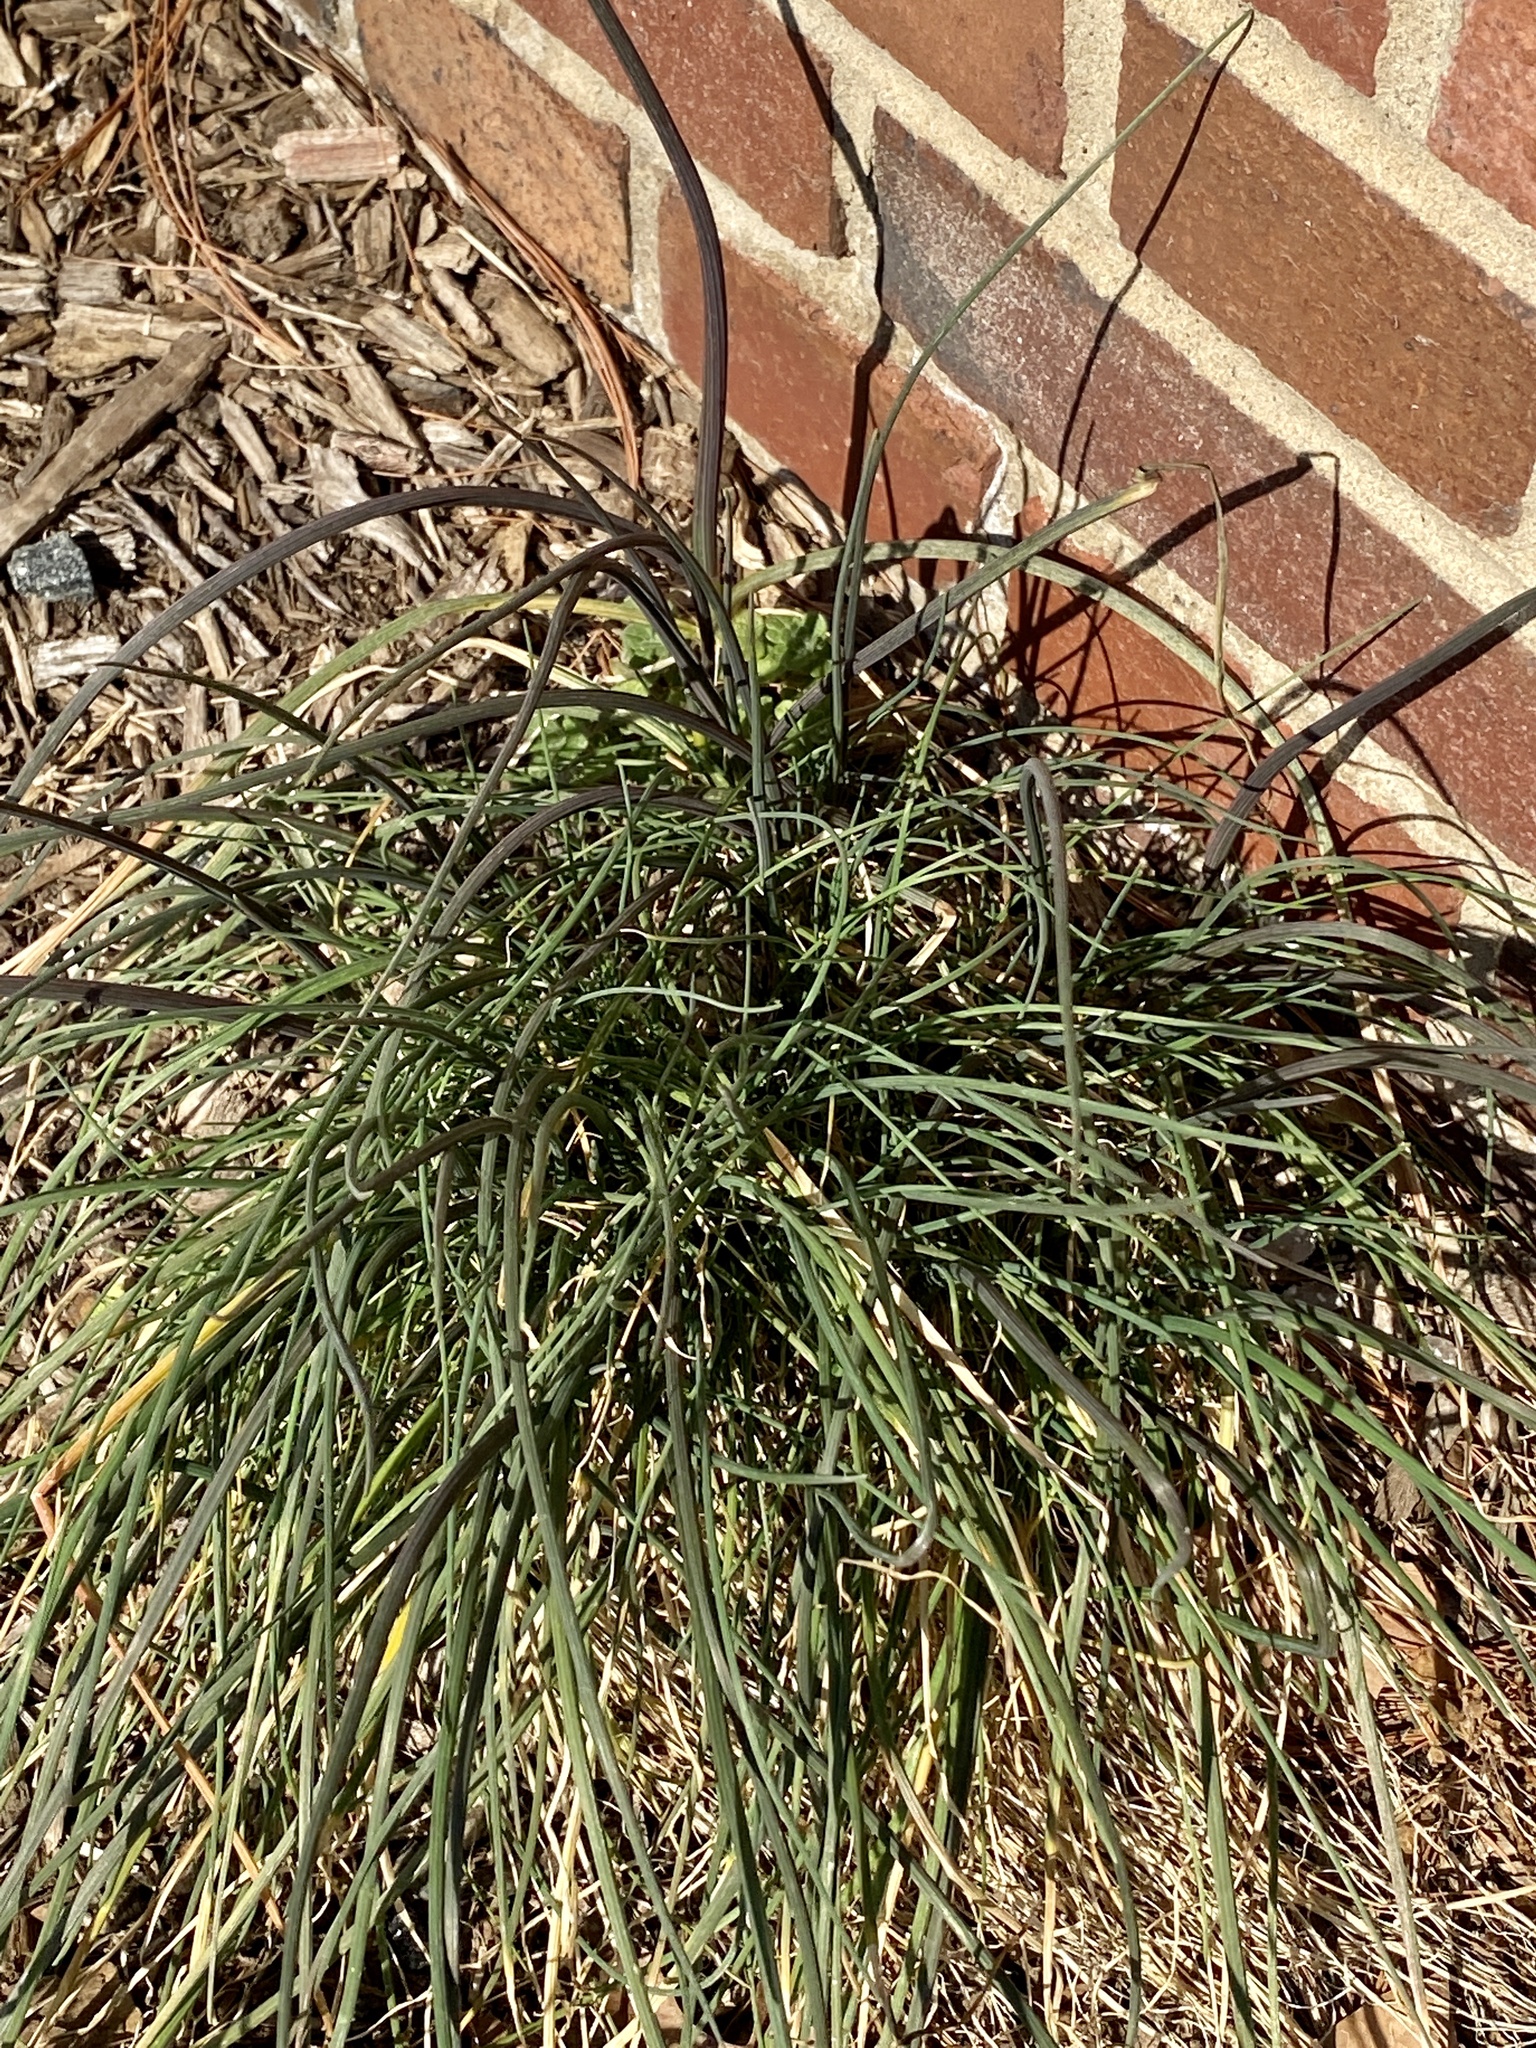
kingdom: Plantae
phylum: Tracheophyta
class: Liliopsida
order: Asparagales
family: Amaryllidaceae
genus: Allium
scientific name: Allium vineale
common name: Crow garlic
